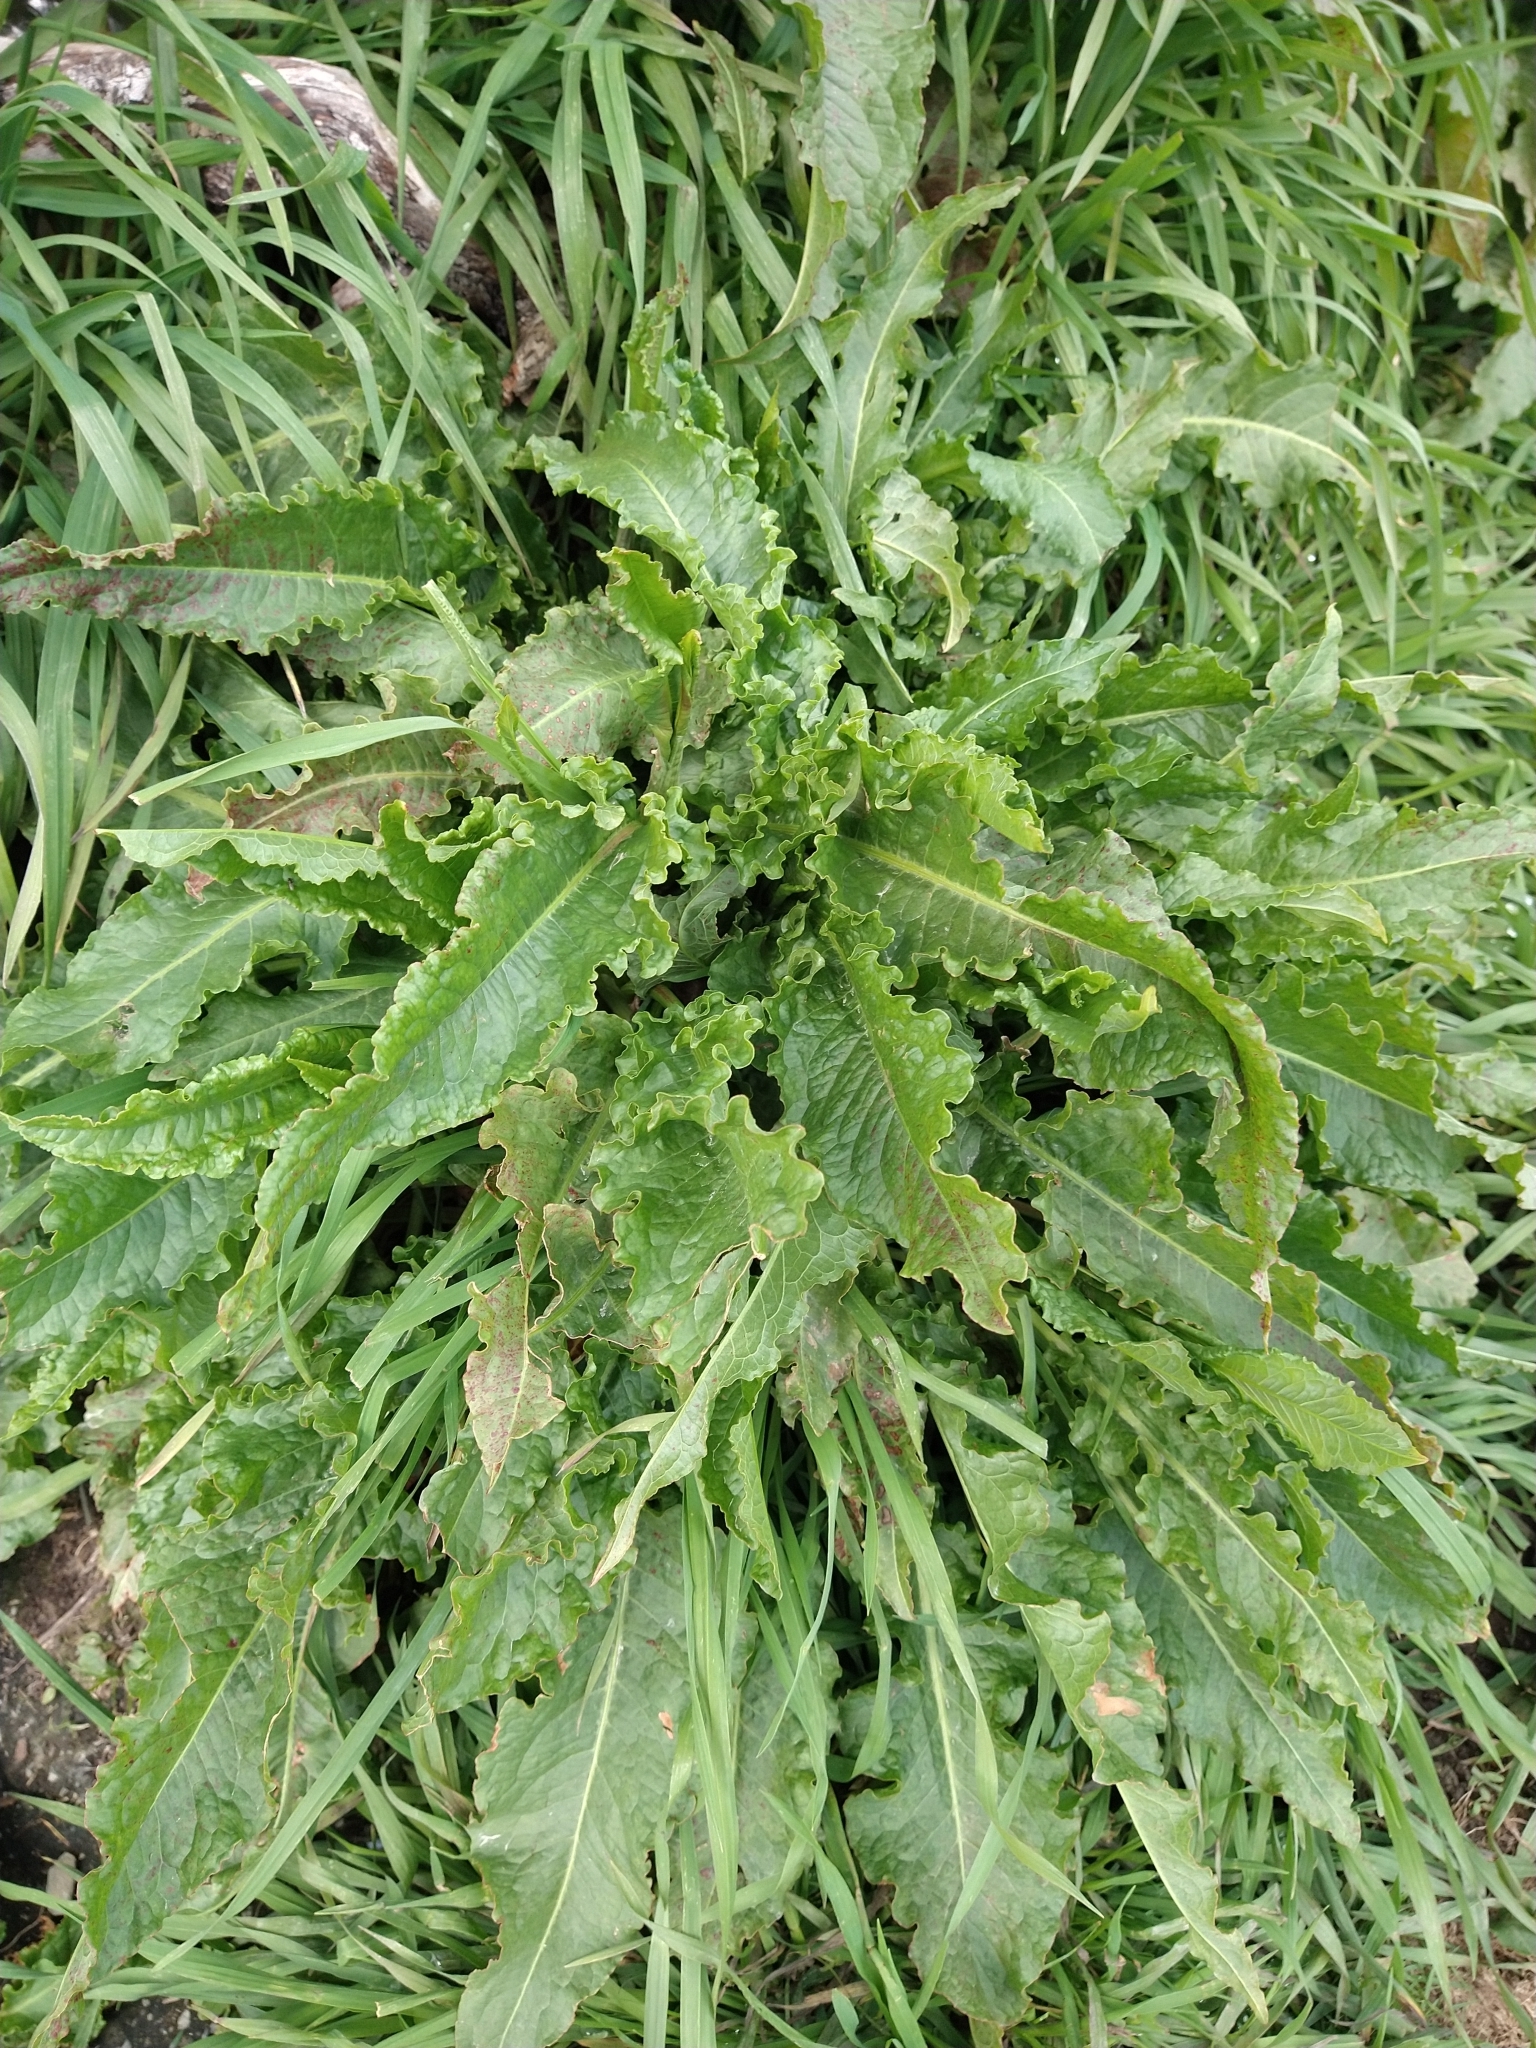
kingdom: Plantae
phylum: Tracheophyta
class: Magnoliopsida
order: Caryophyllales
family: Polygonaceae
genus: Rumex
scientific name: Rumex crispus
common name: Curled dock
